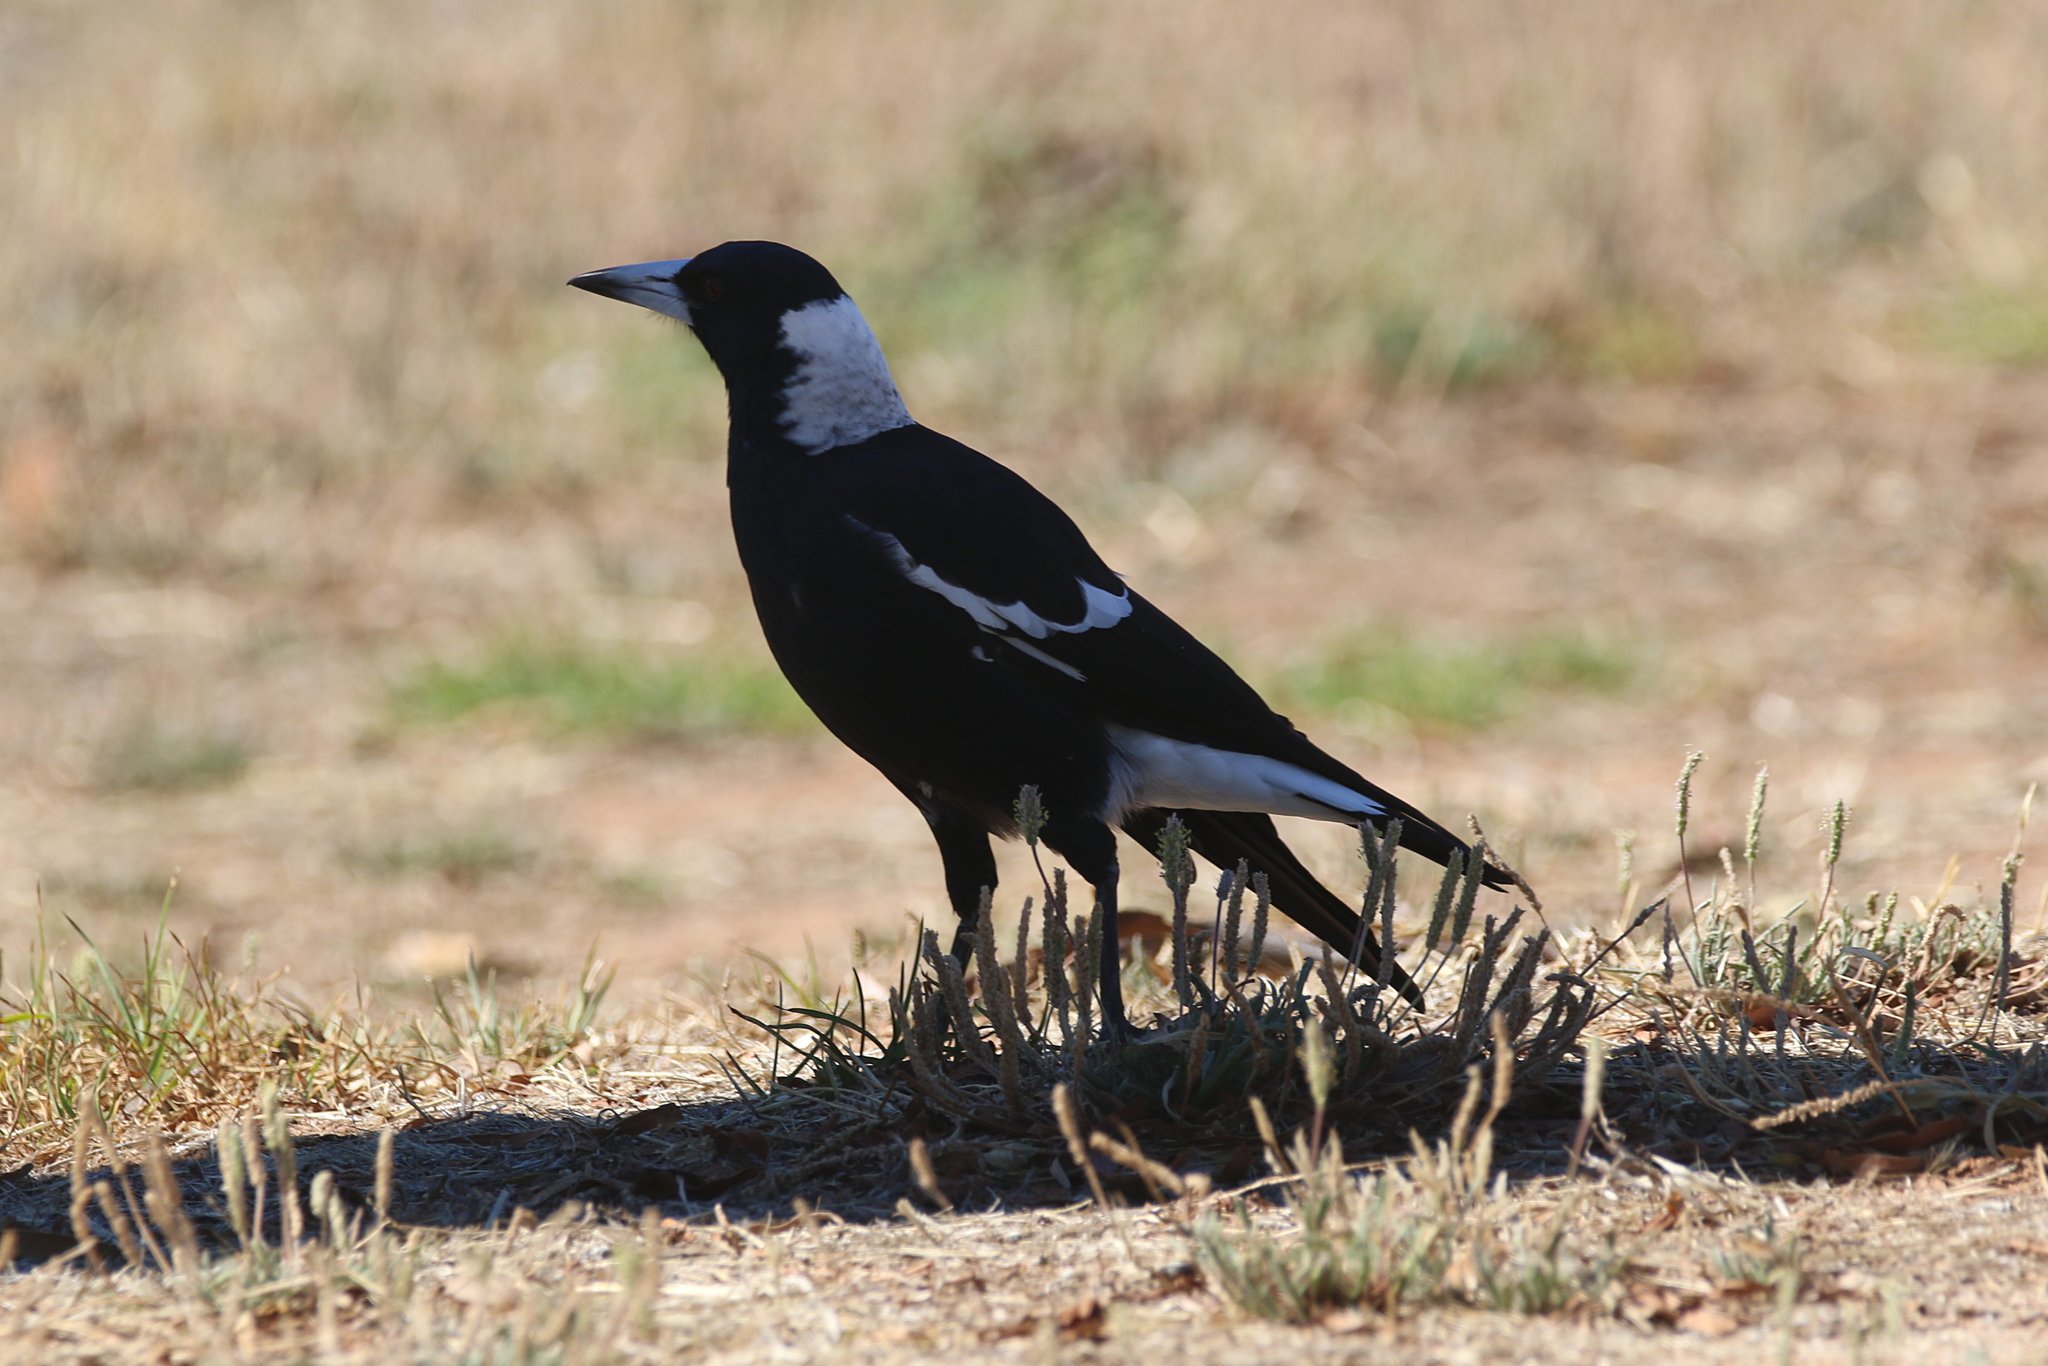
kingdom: Animalia
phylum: Chordata
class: Aves
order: Passeriformes
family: Cracticidae
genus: Gymnorhina
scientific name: Gymnorhina tibicen
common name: Australian magpie
